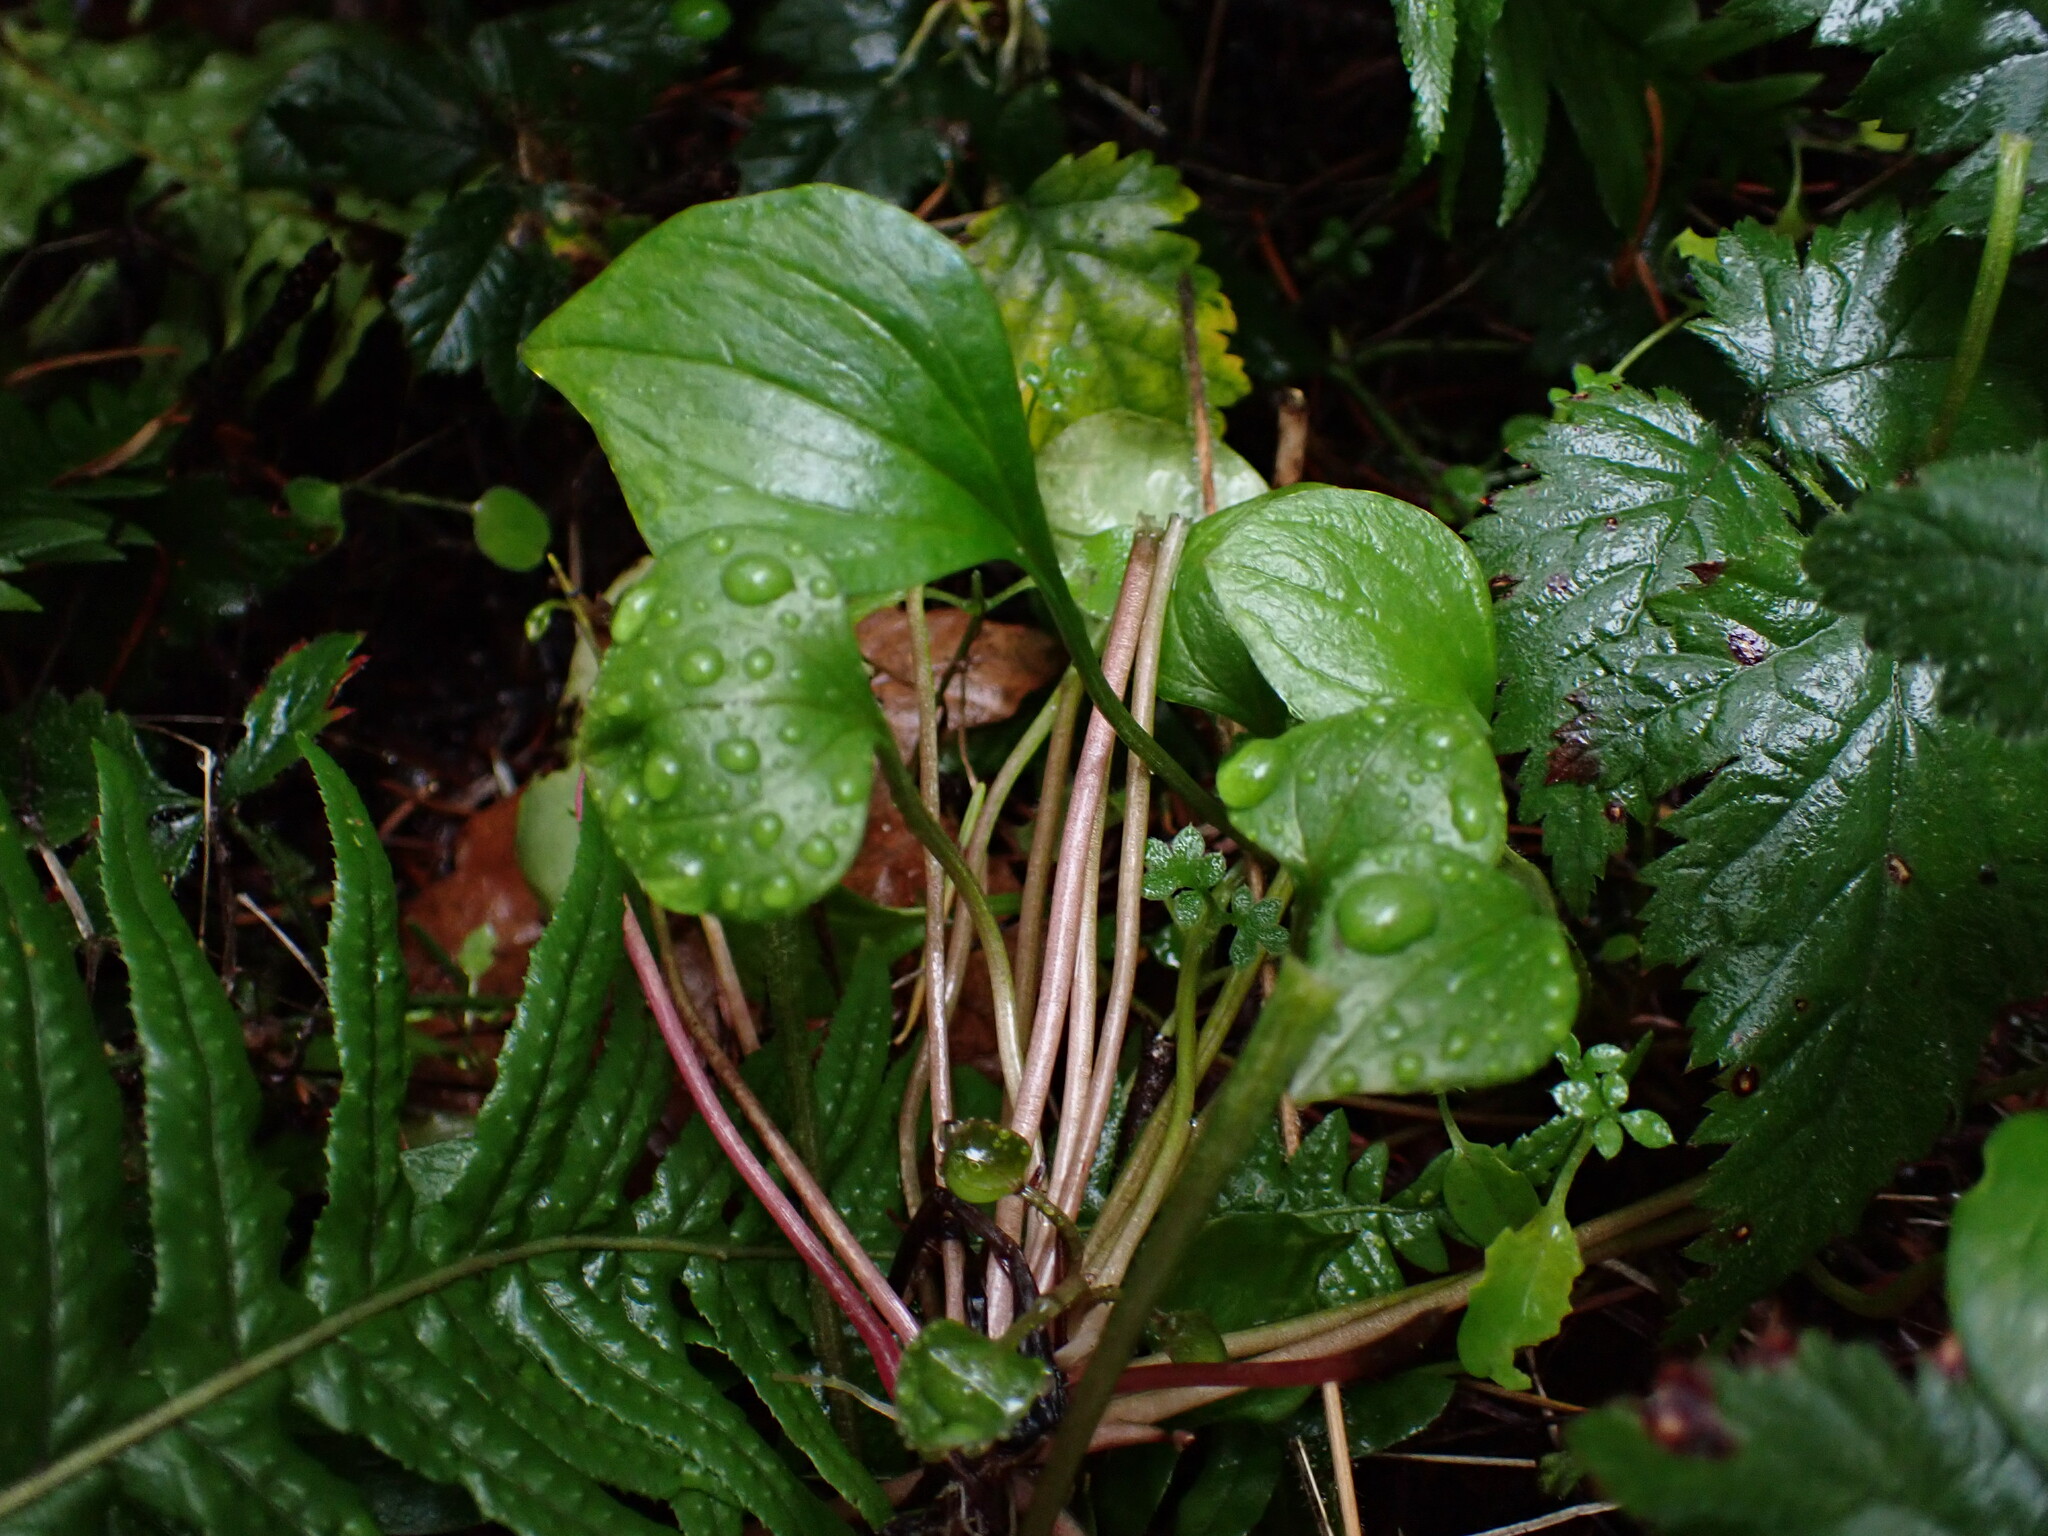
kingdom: Plantae
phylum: Tracheophyta
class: Magnoliopsida
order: Caryophyllales
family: Montiaceae
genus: Claytonia
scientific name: Claytonia sibirica
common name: Pink purslane
